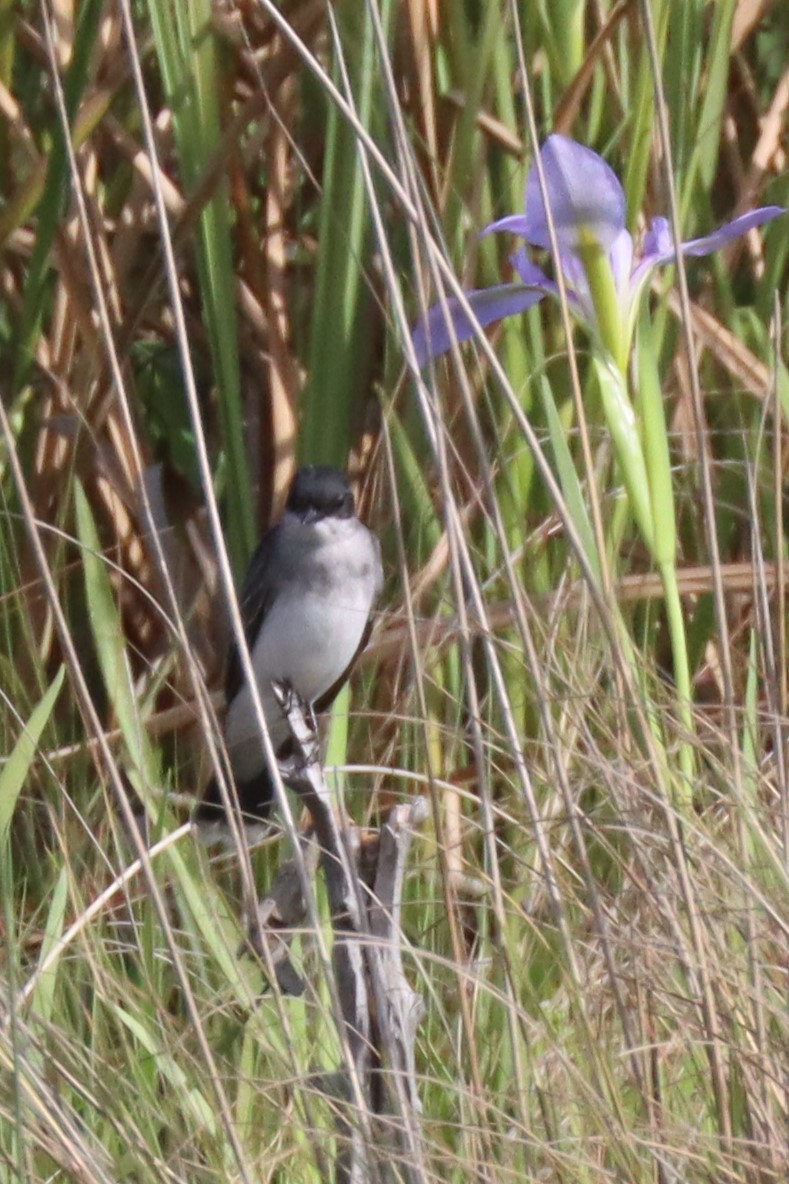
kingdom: Animalia
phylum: Chordata
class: Aves
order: Passeriformes
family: Tyrannidae
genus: Tyrannus
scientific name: Tyrannus tyrannus
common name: Eastern kingbird
